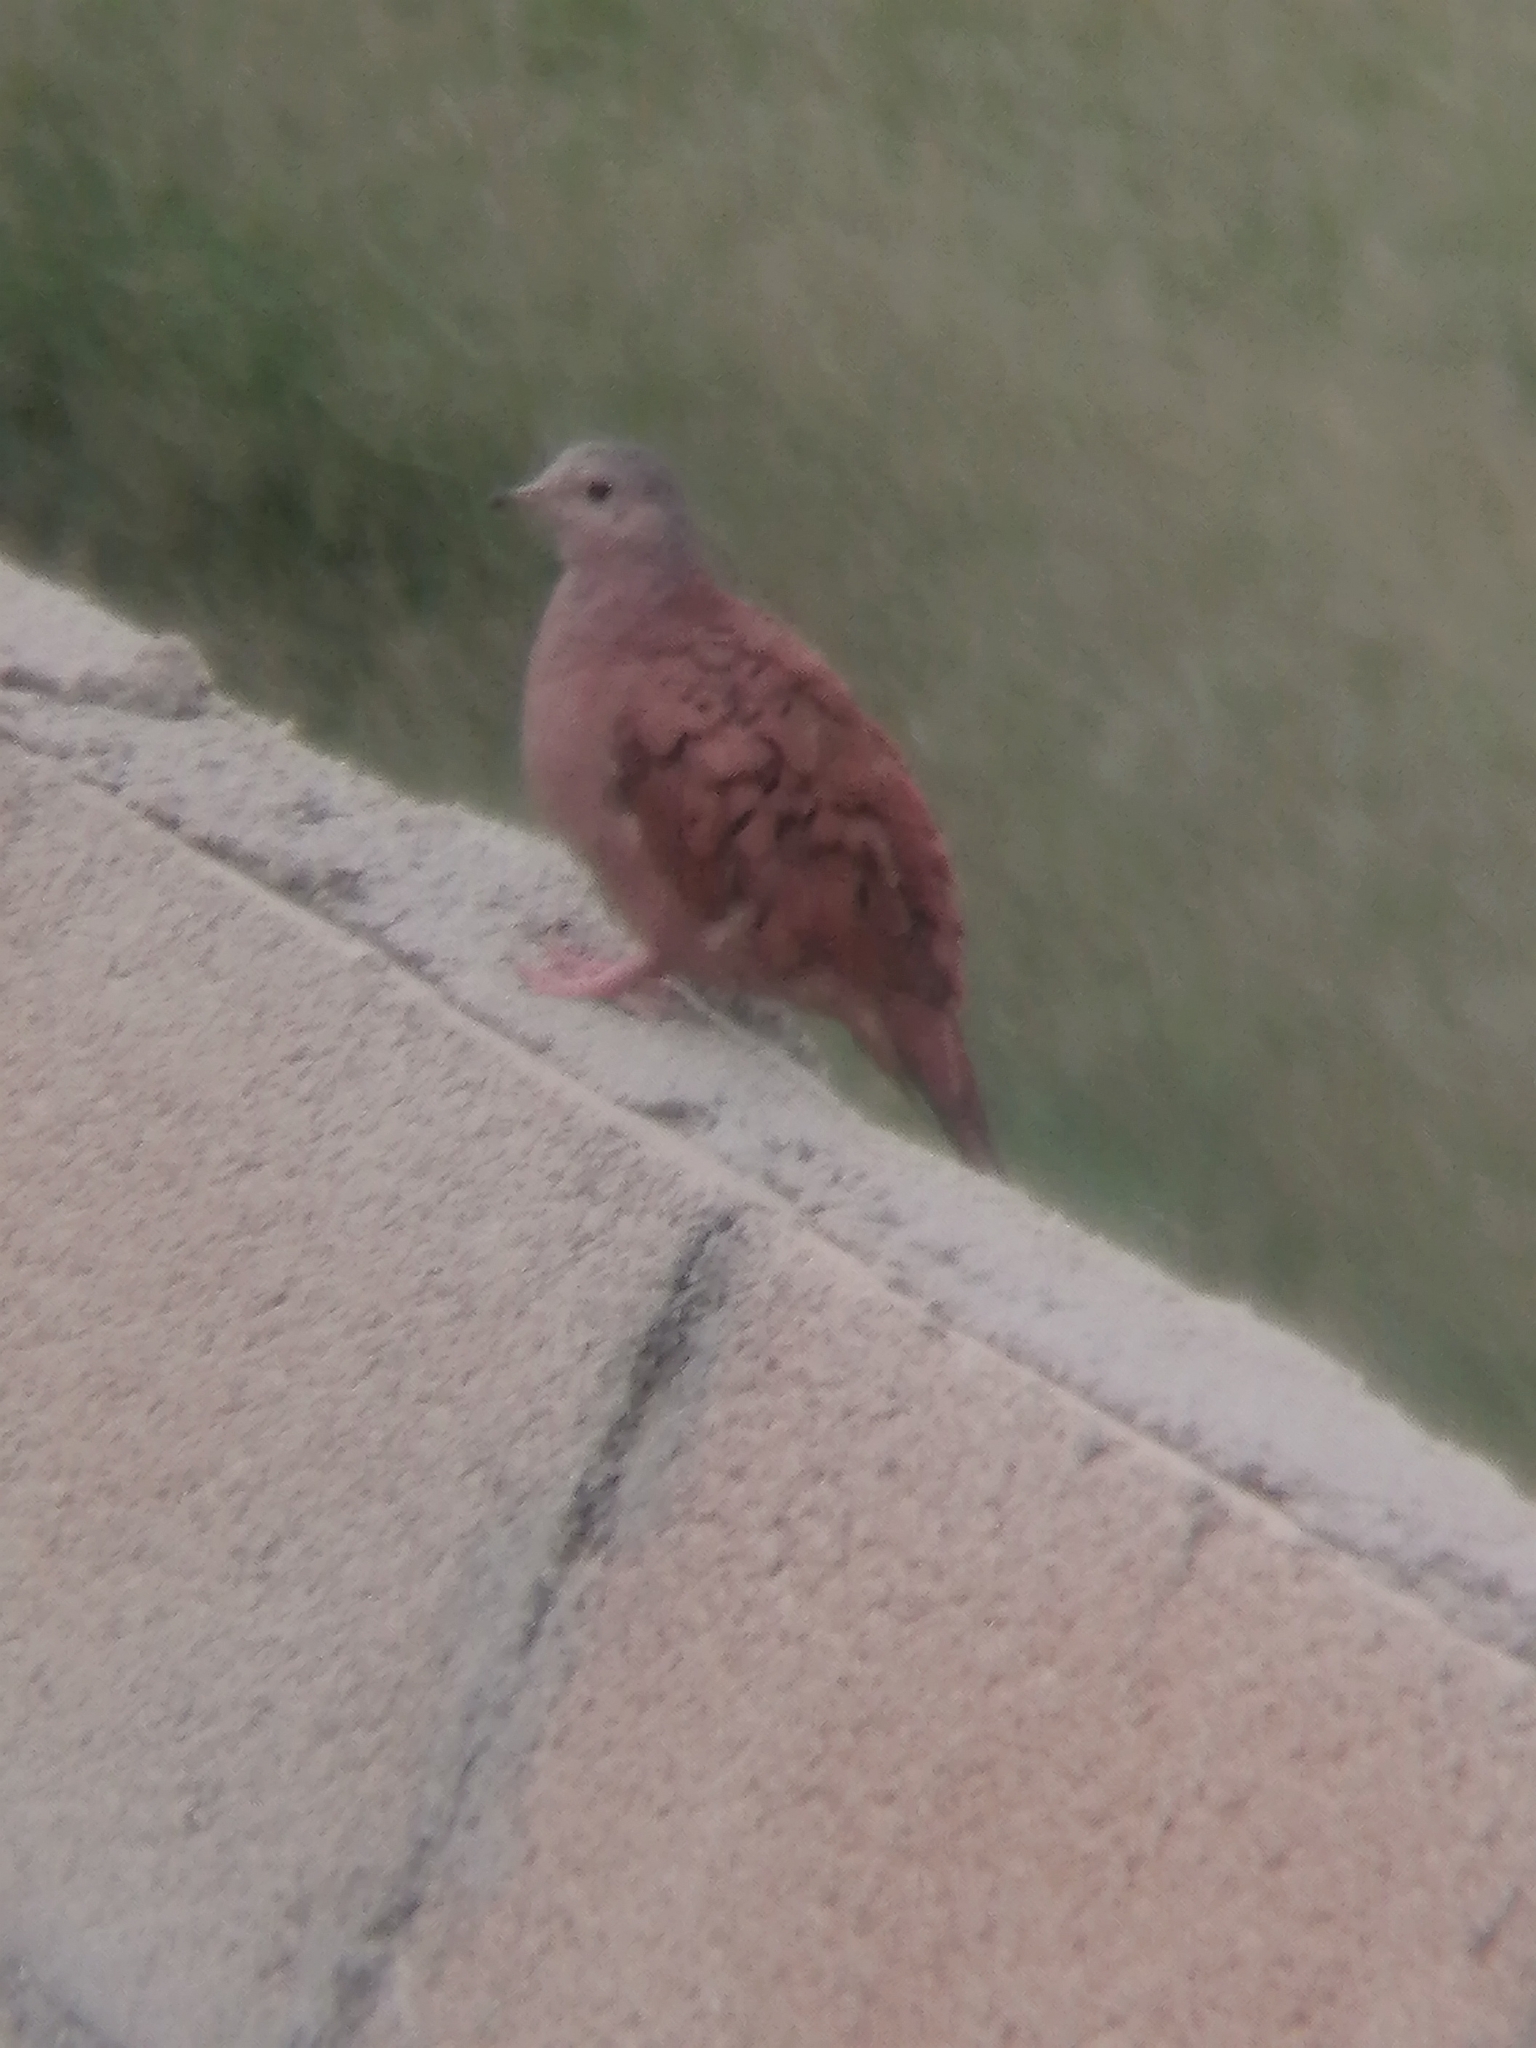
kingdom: Animalia
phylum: Chordata
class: Aves
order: Columbiformes
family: Columbidae
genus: Columbina
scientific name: Columbina talpacoti
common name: Ruddy ground dove
